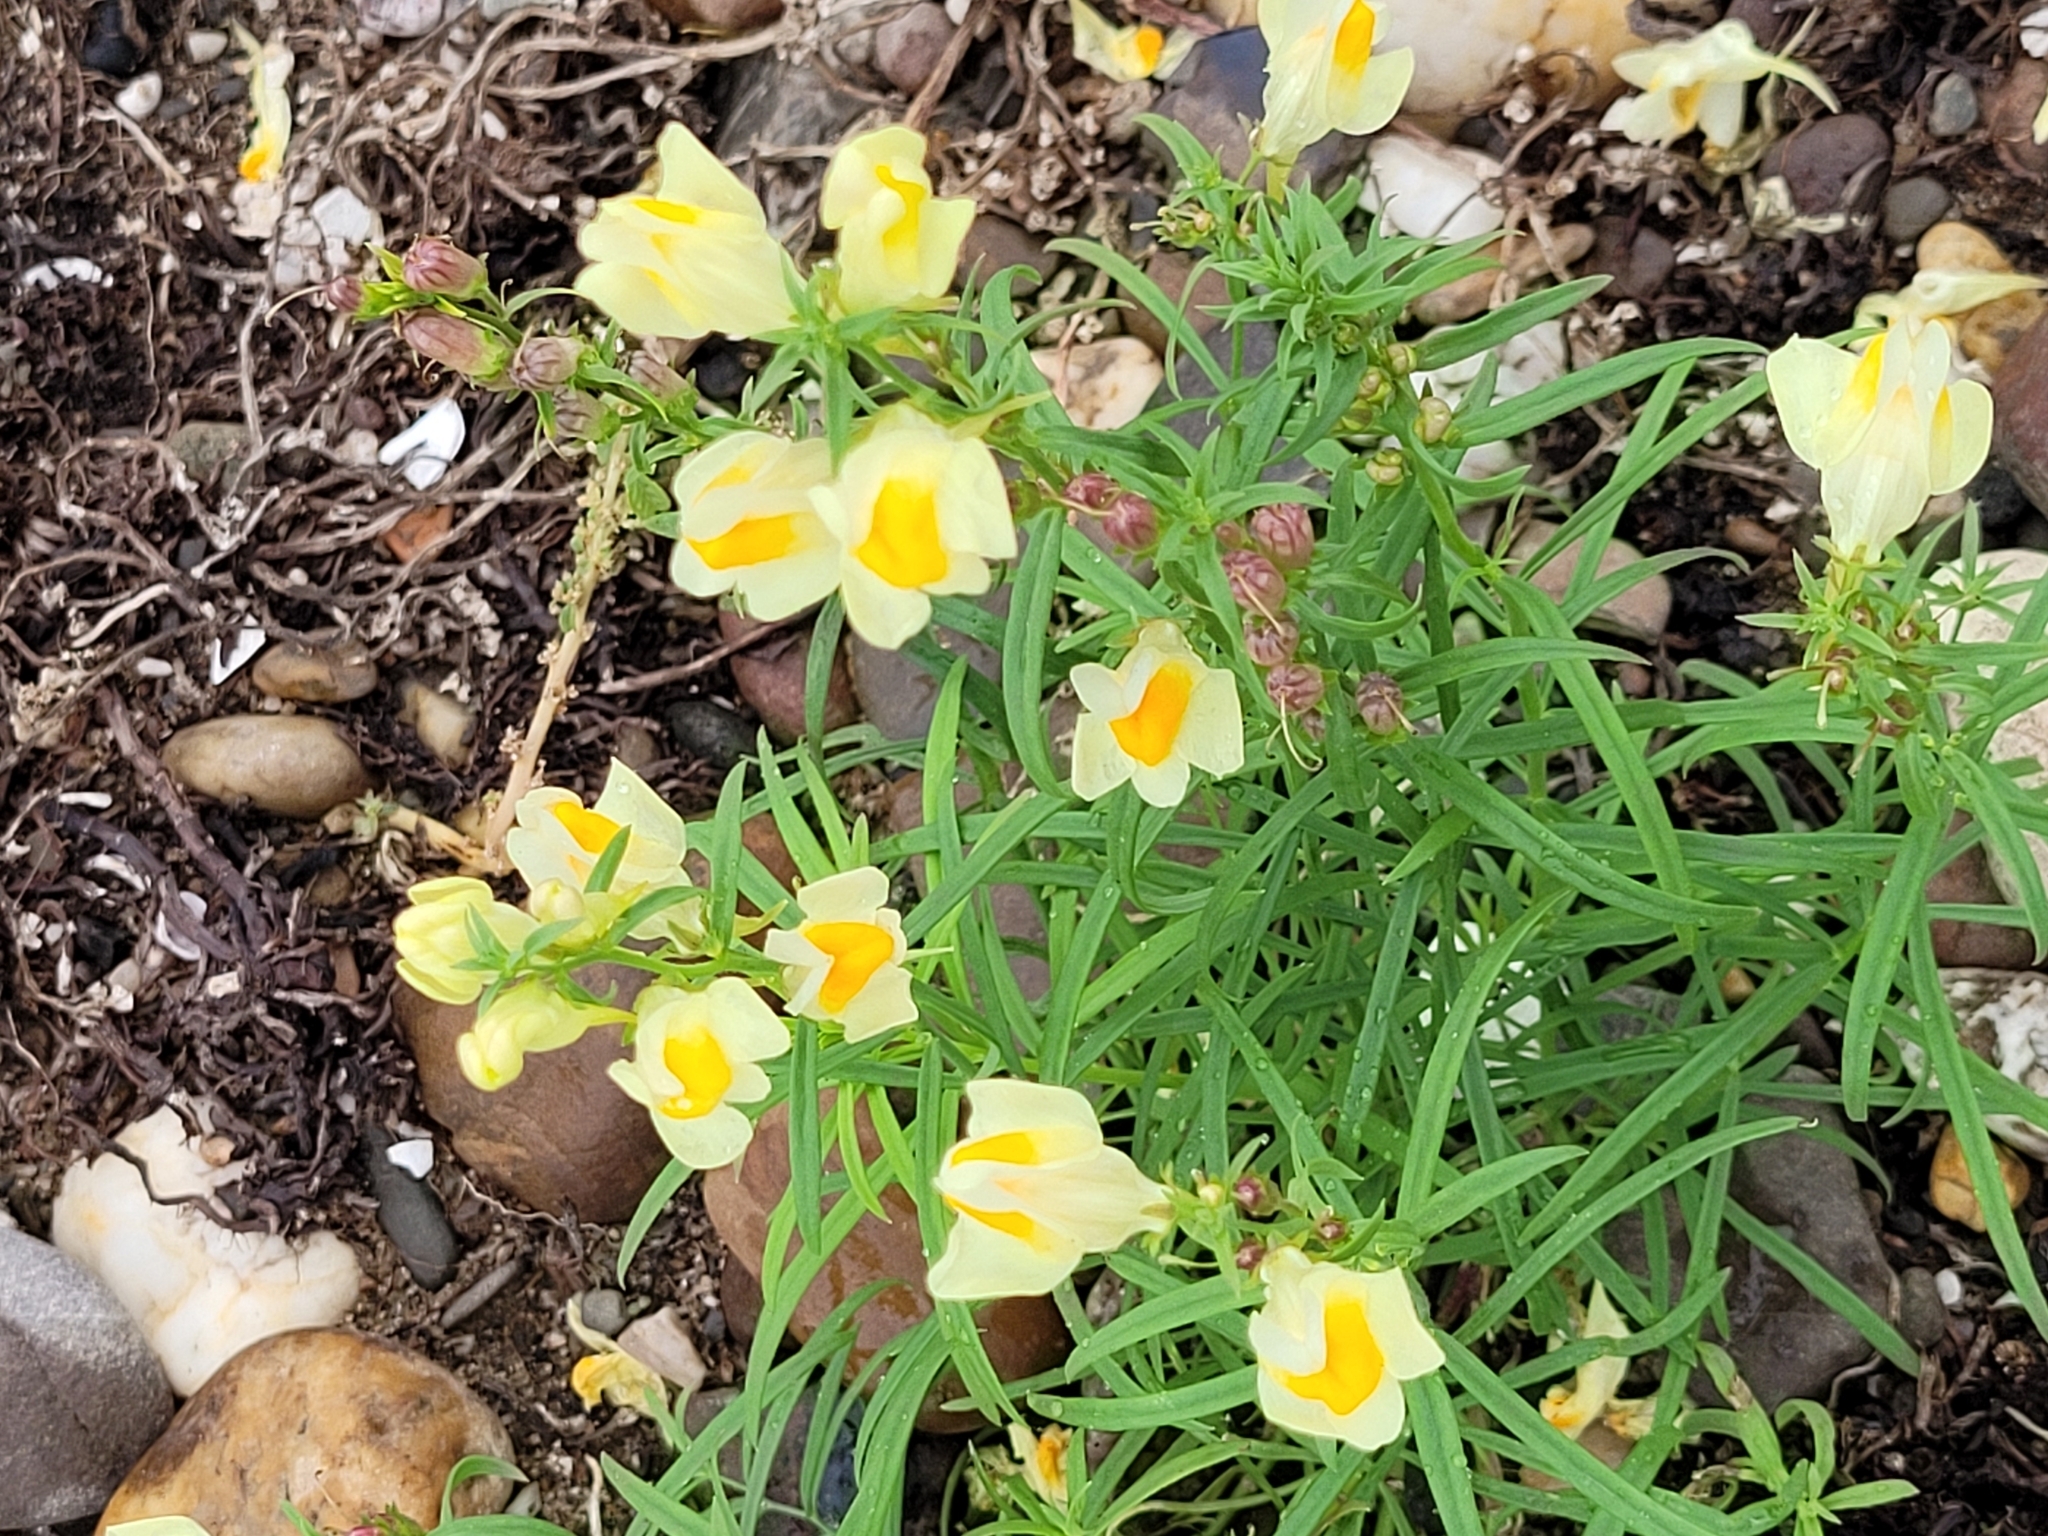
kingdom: Plantae
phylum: Tracheophyta
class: Magnoliopsida
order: Lamiales
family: Plantaginaceae
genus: Linaria
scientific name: Linaria vulgaris
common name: Butter and eggs
